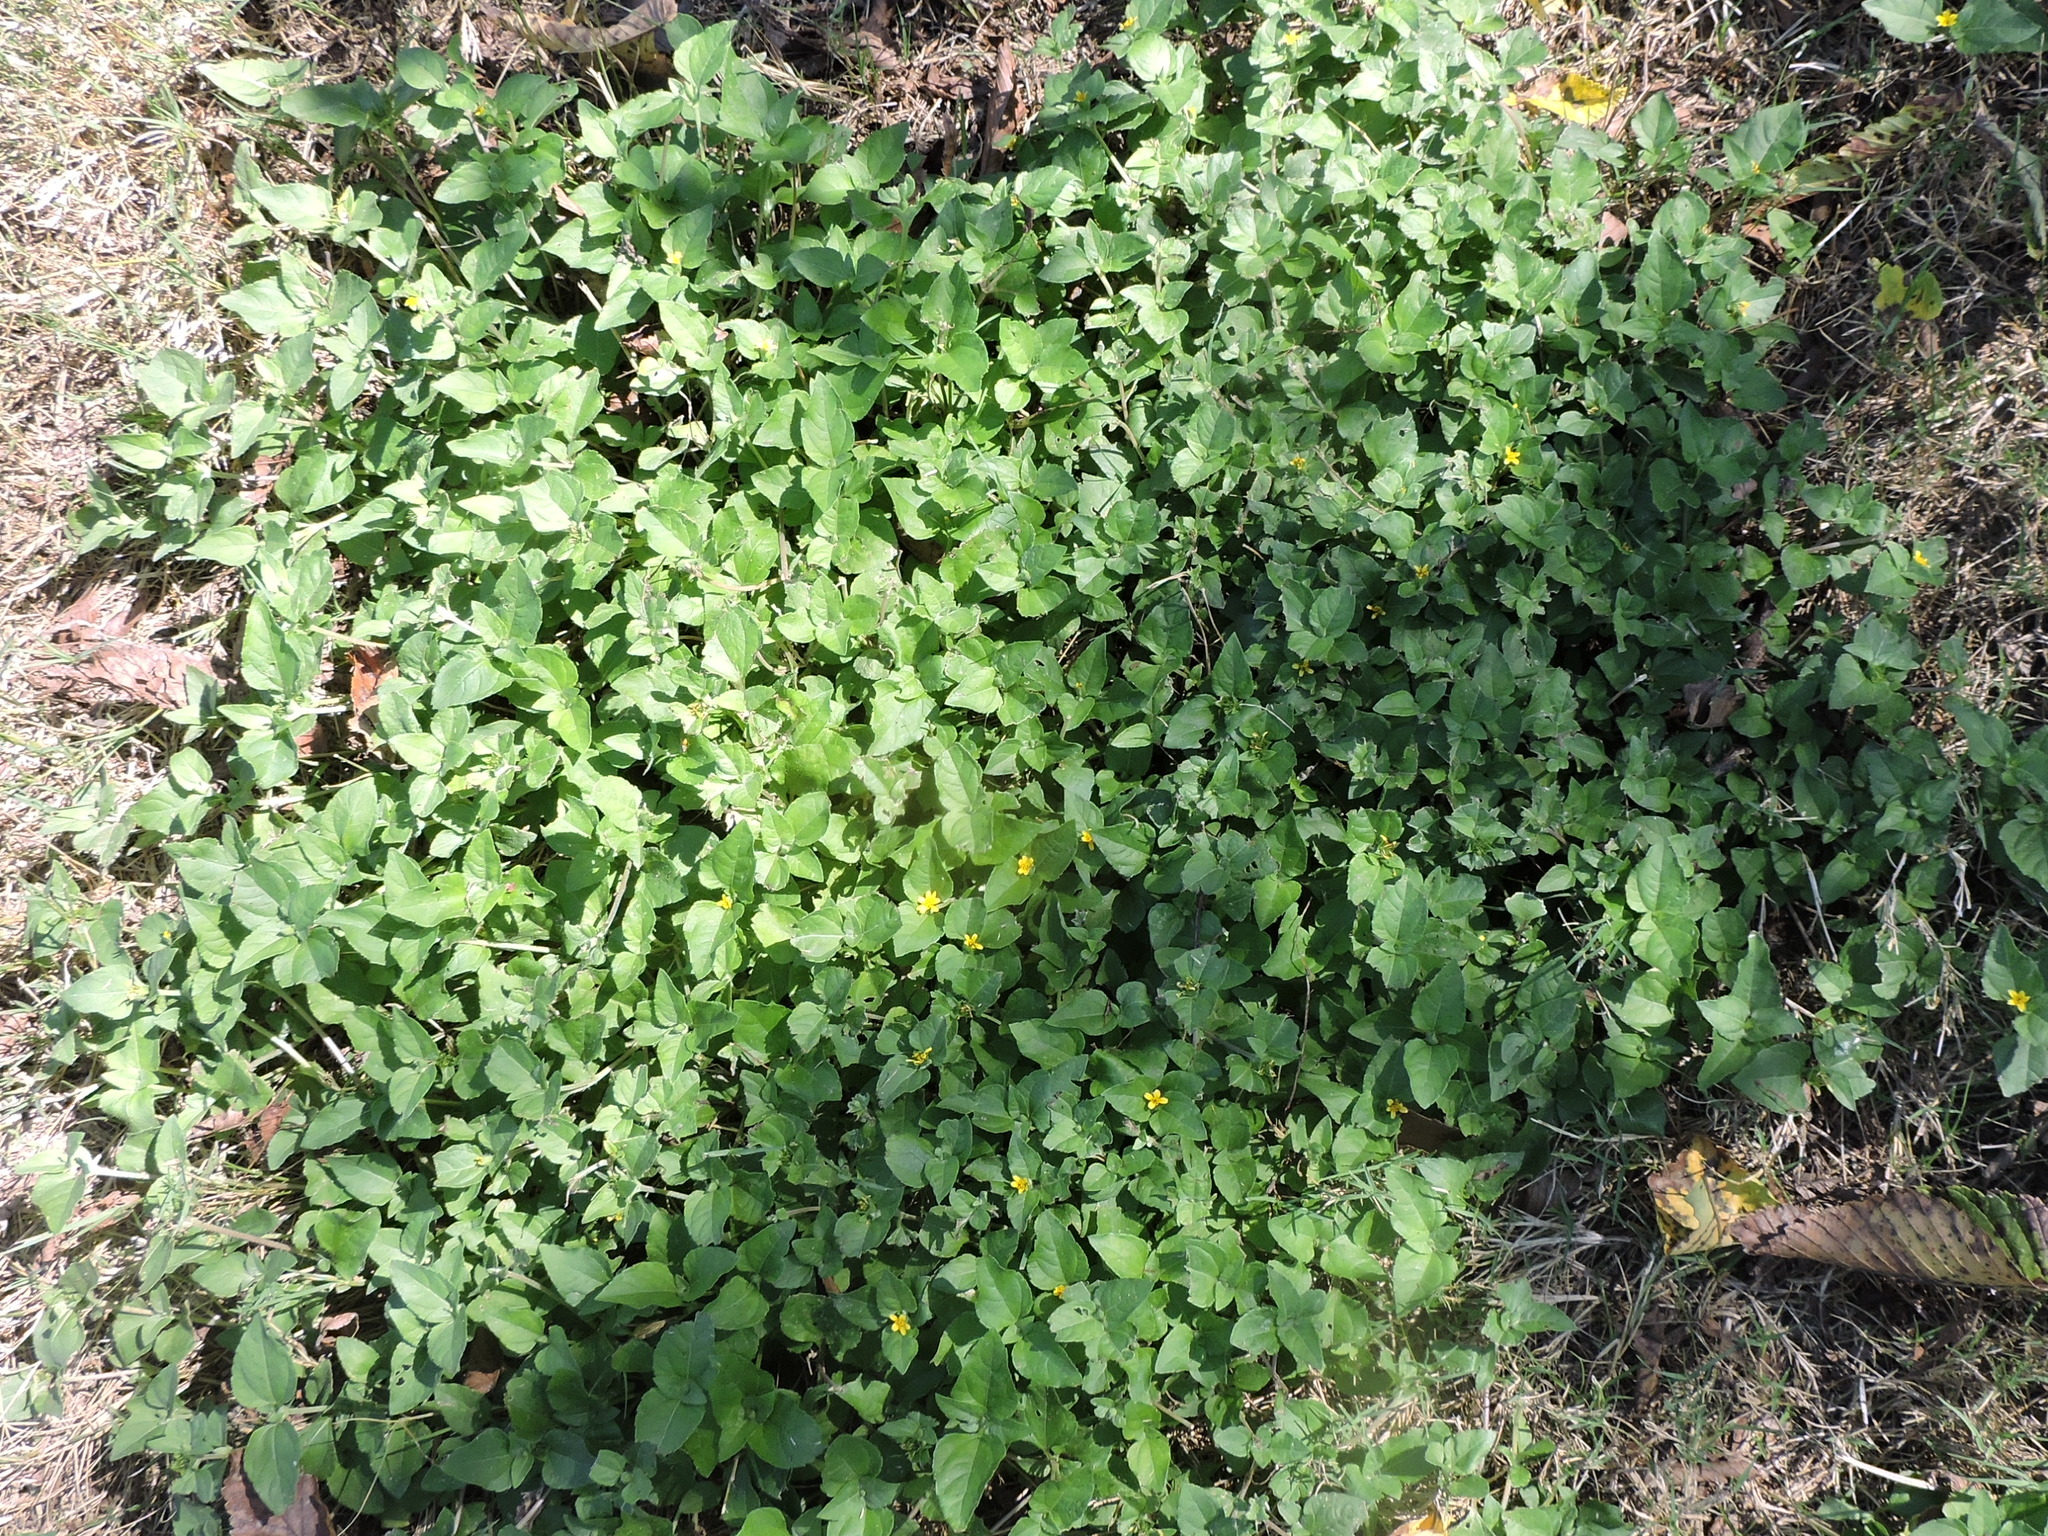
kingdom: Plantae
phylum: Tracheophyta
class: Magnoliopsida
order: Asterales
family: Asteraceae
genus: Calyptocarpus
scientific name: Calyptocarpus vialis
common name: Straggler daisy
